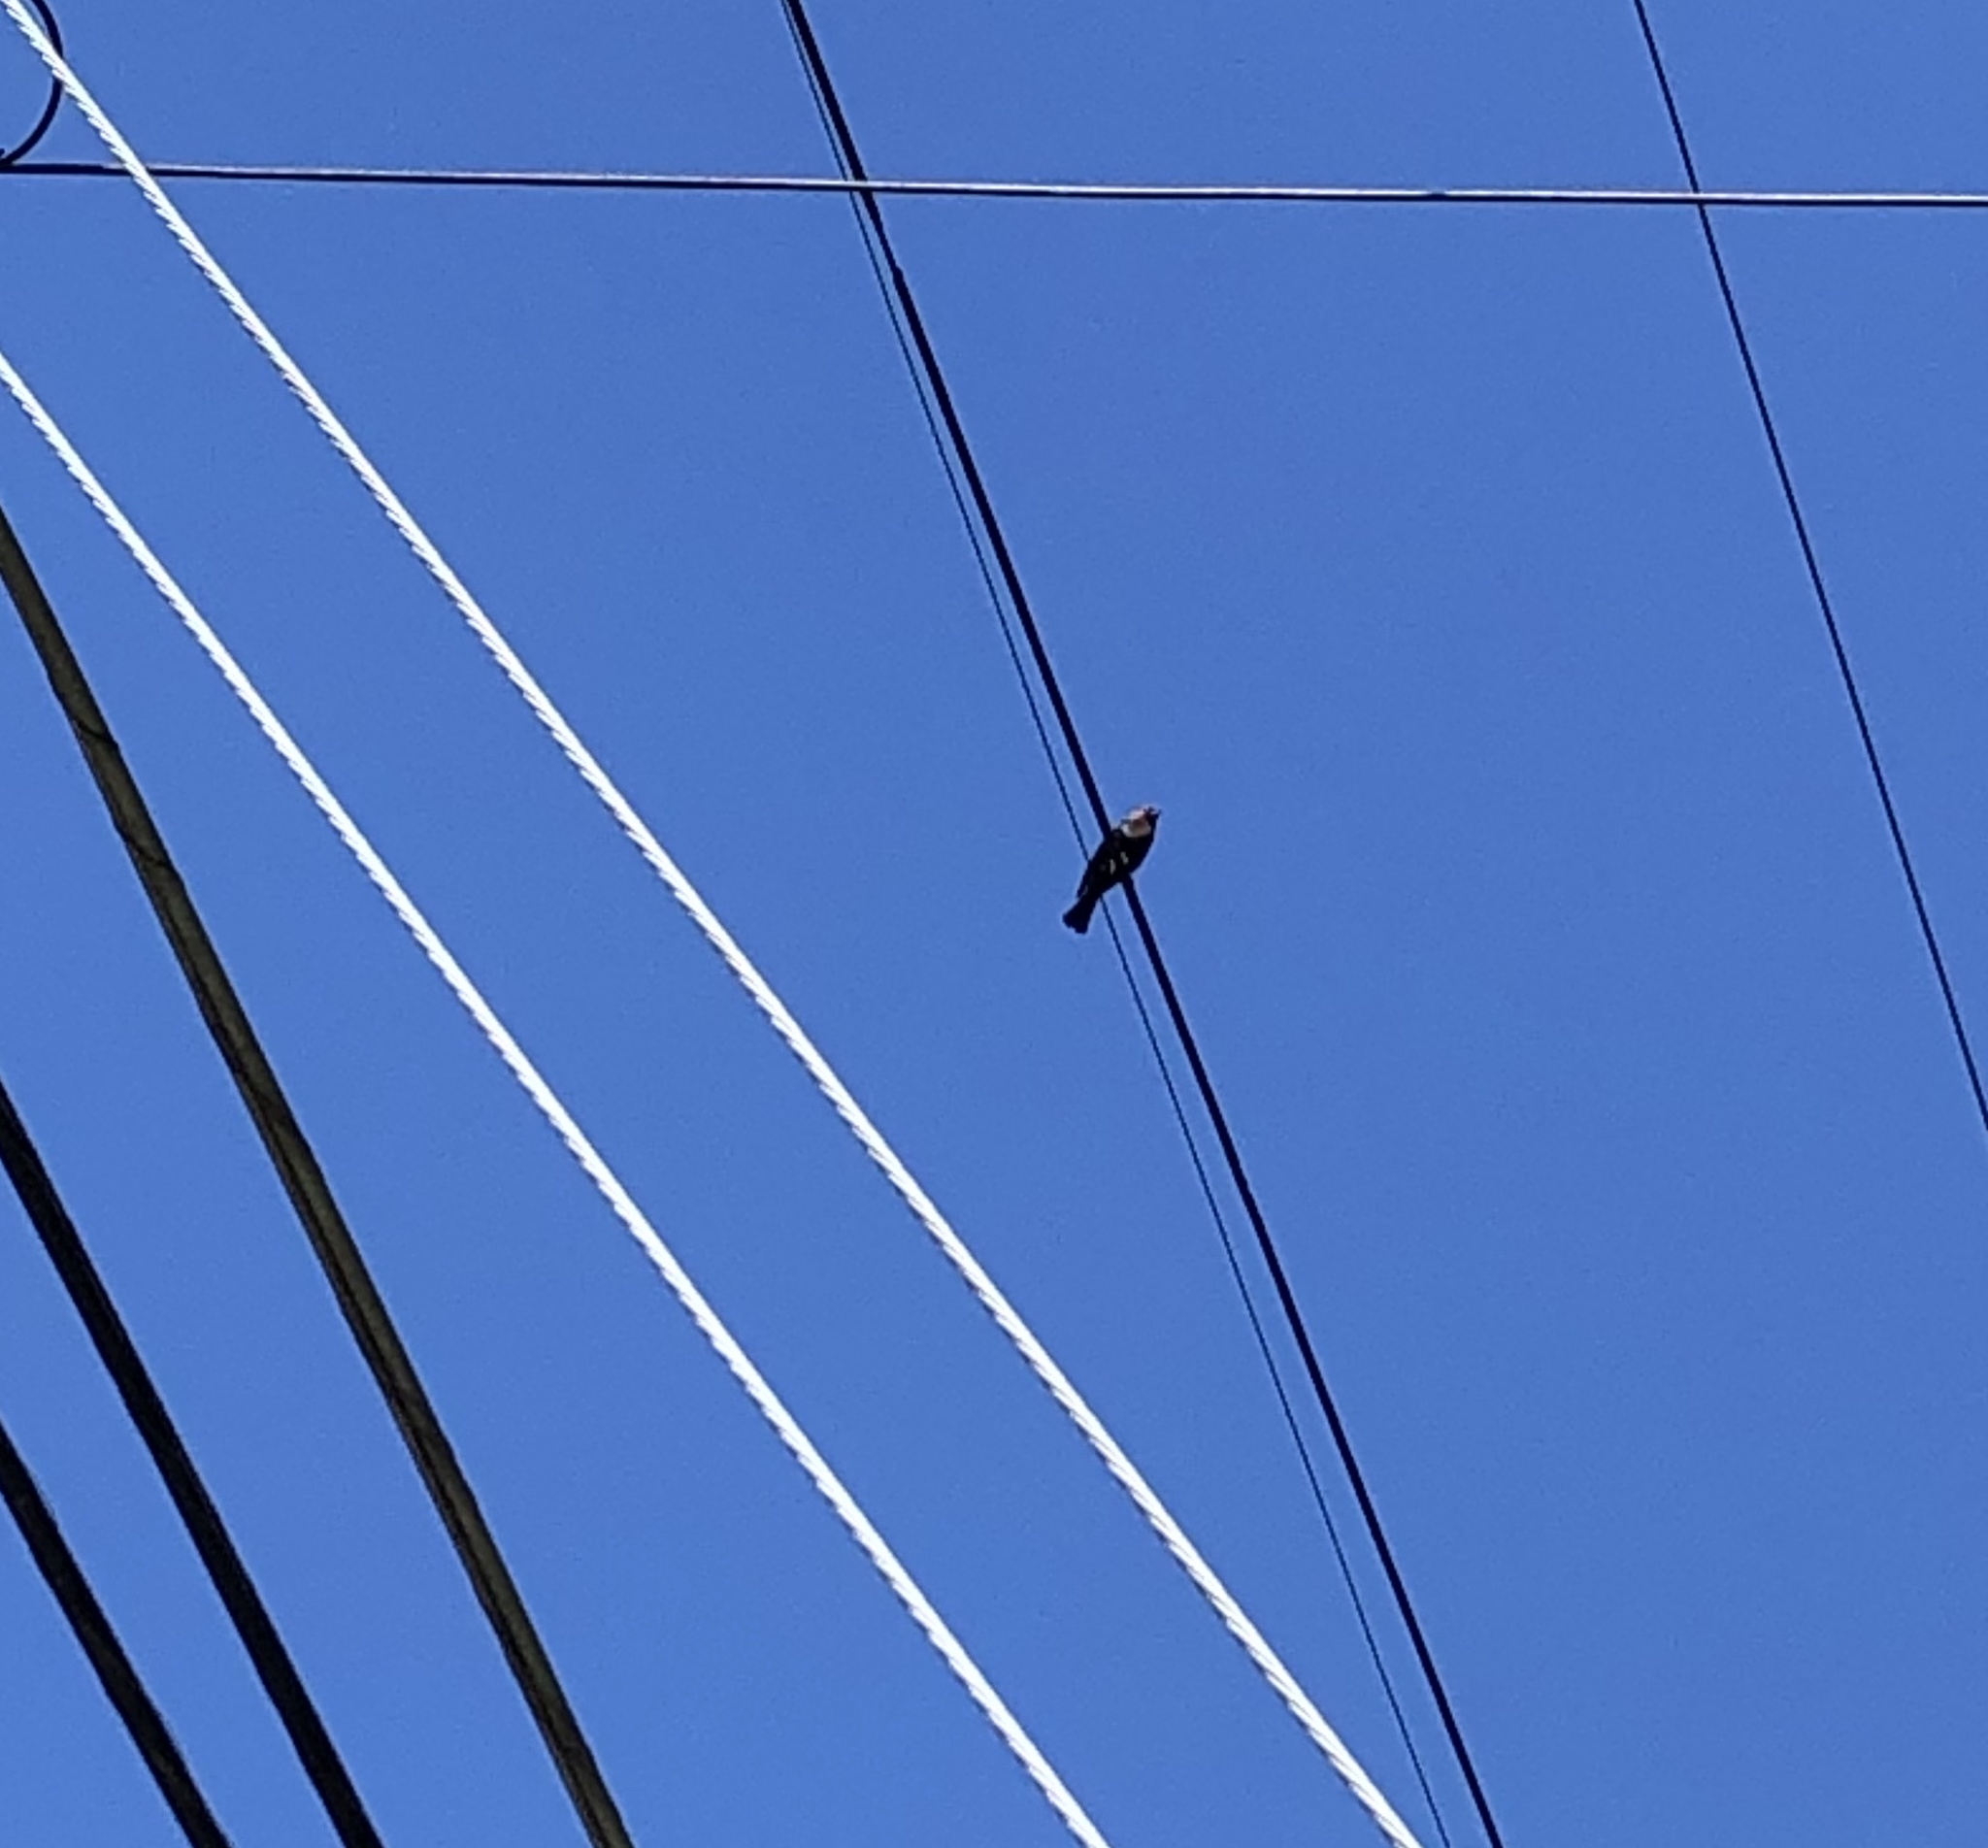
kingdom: Animalia
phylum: Chordata
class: Aves
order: Passeriformes
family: Icteridae
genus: Molothrus
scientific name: Molothrus ater
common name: Brown-headed cowbird
